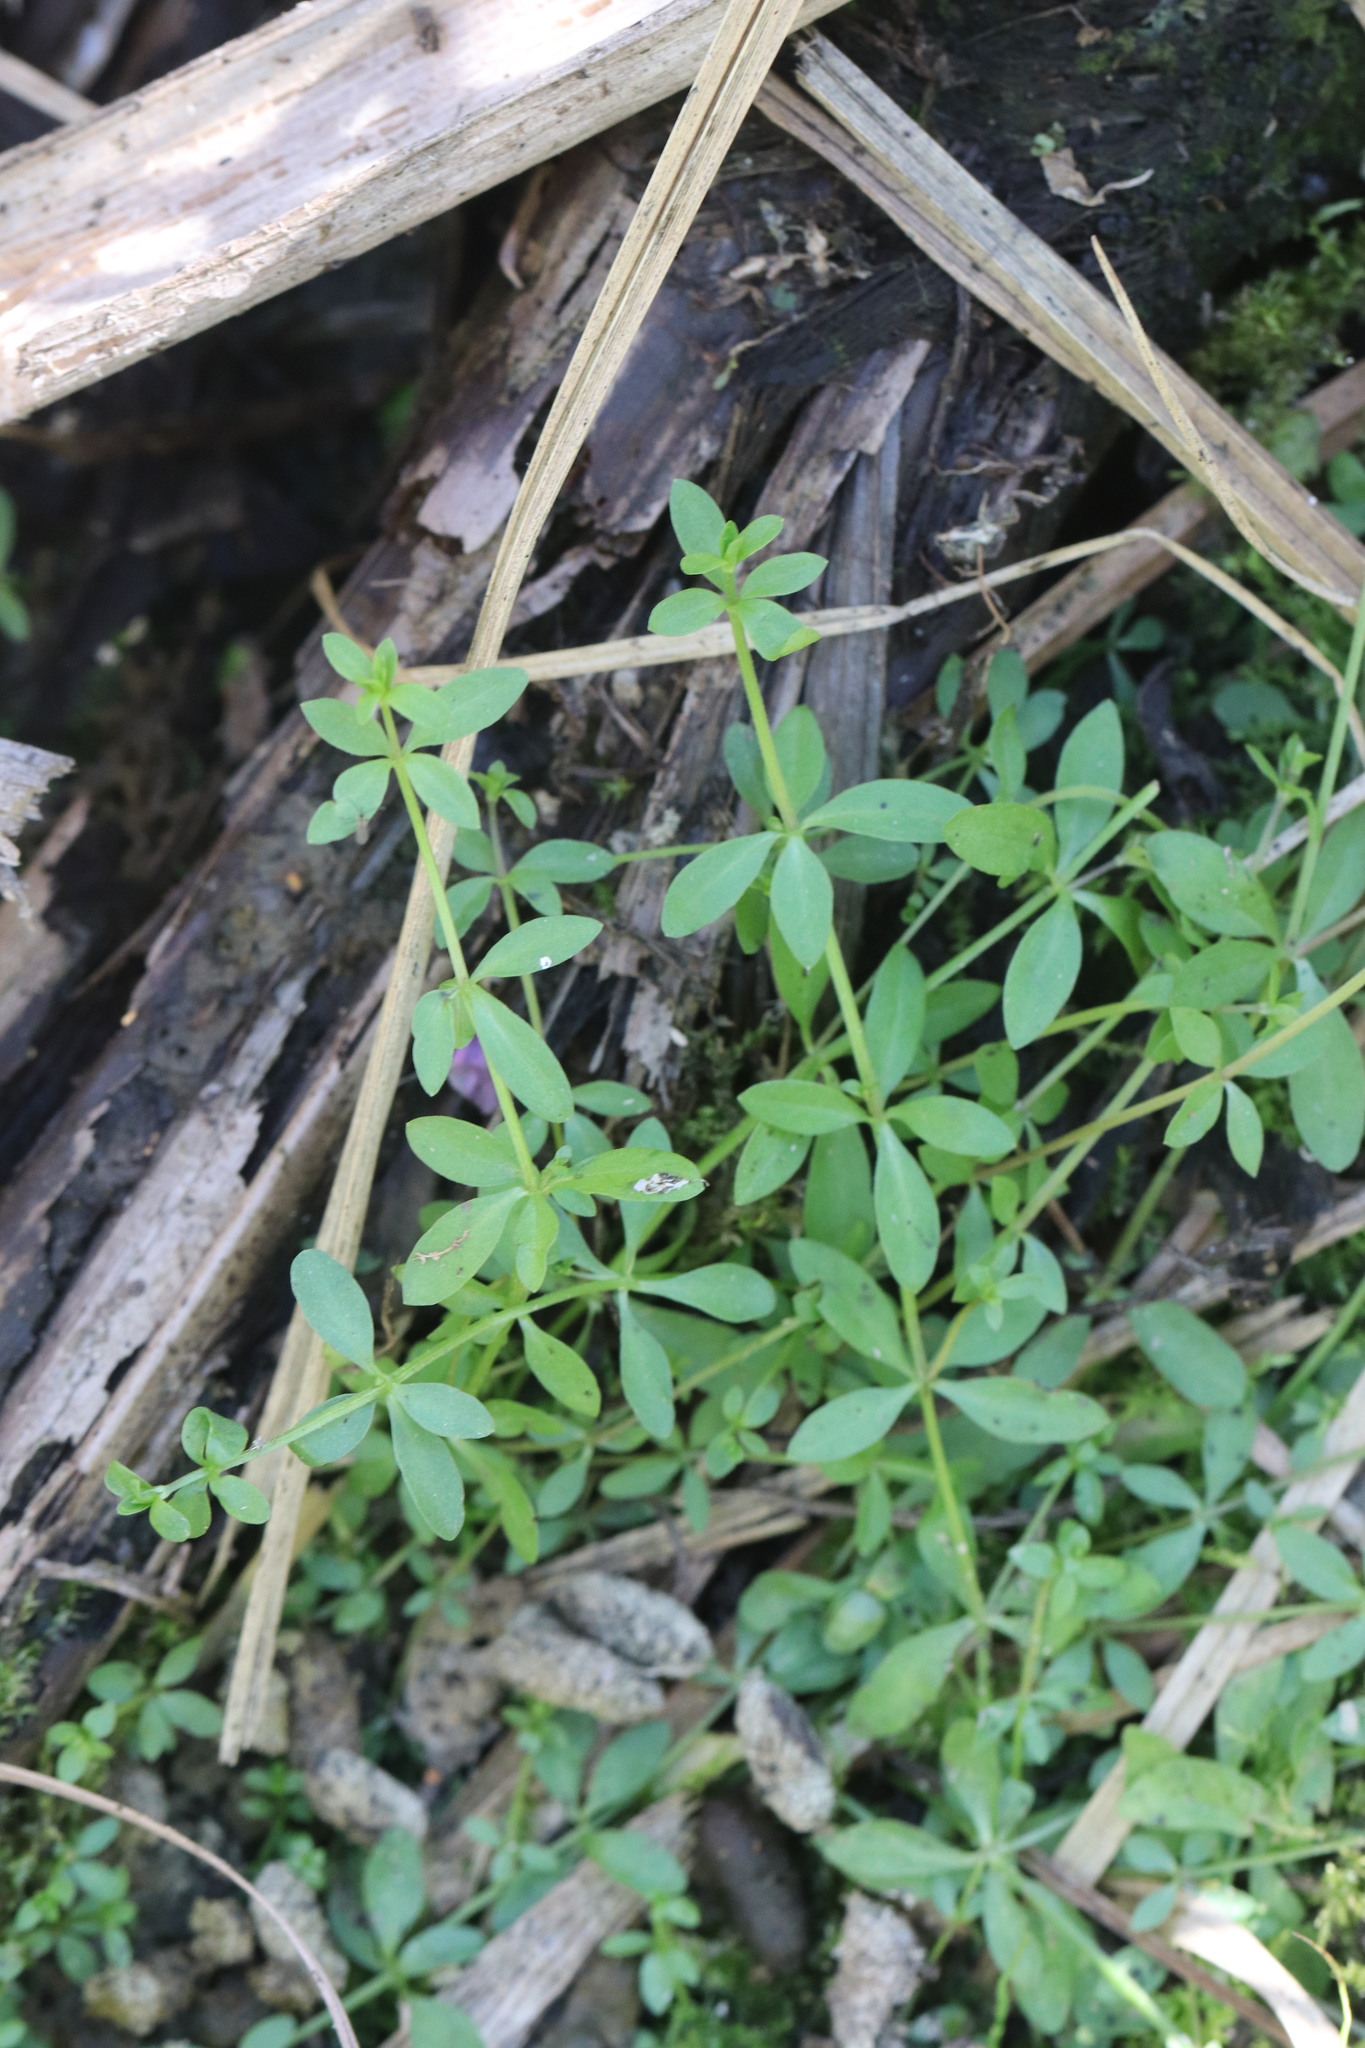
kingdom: Plantae
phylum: Tracheophyta
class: Magnoliopsida
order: Gentianales
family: Rubiaceae
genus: Galium
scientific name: Galium palustre
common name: Common marsh-bedstraw
